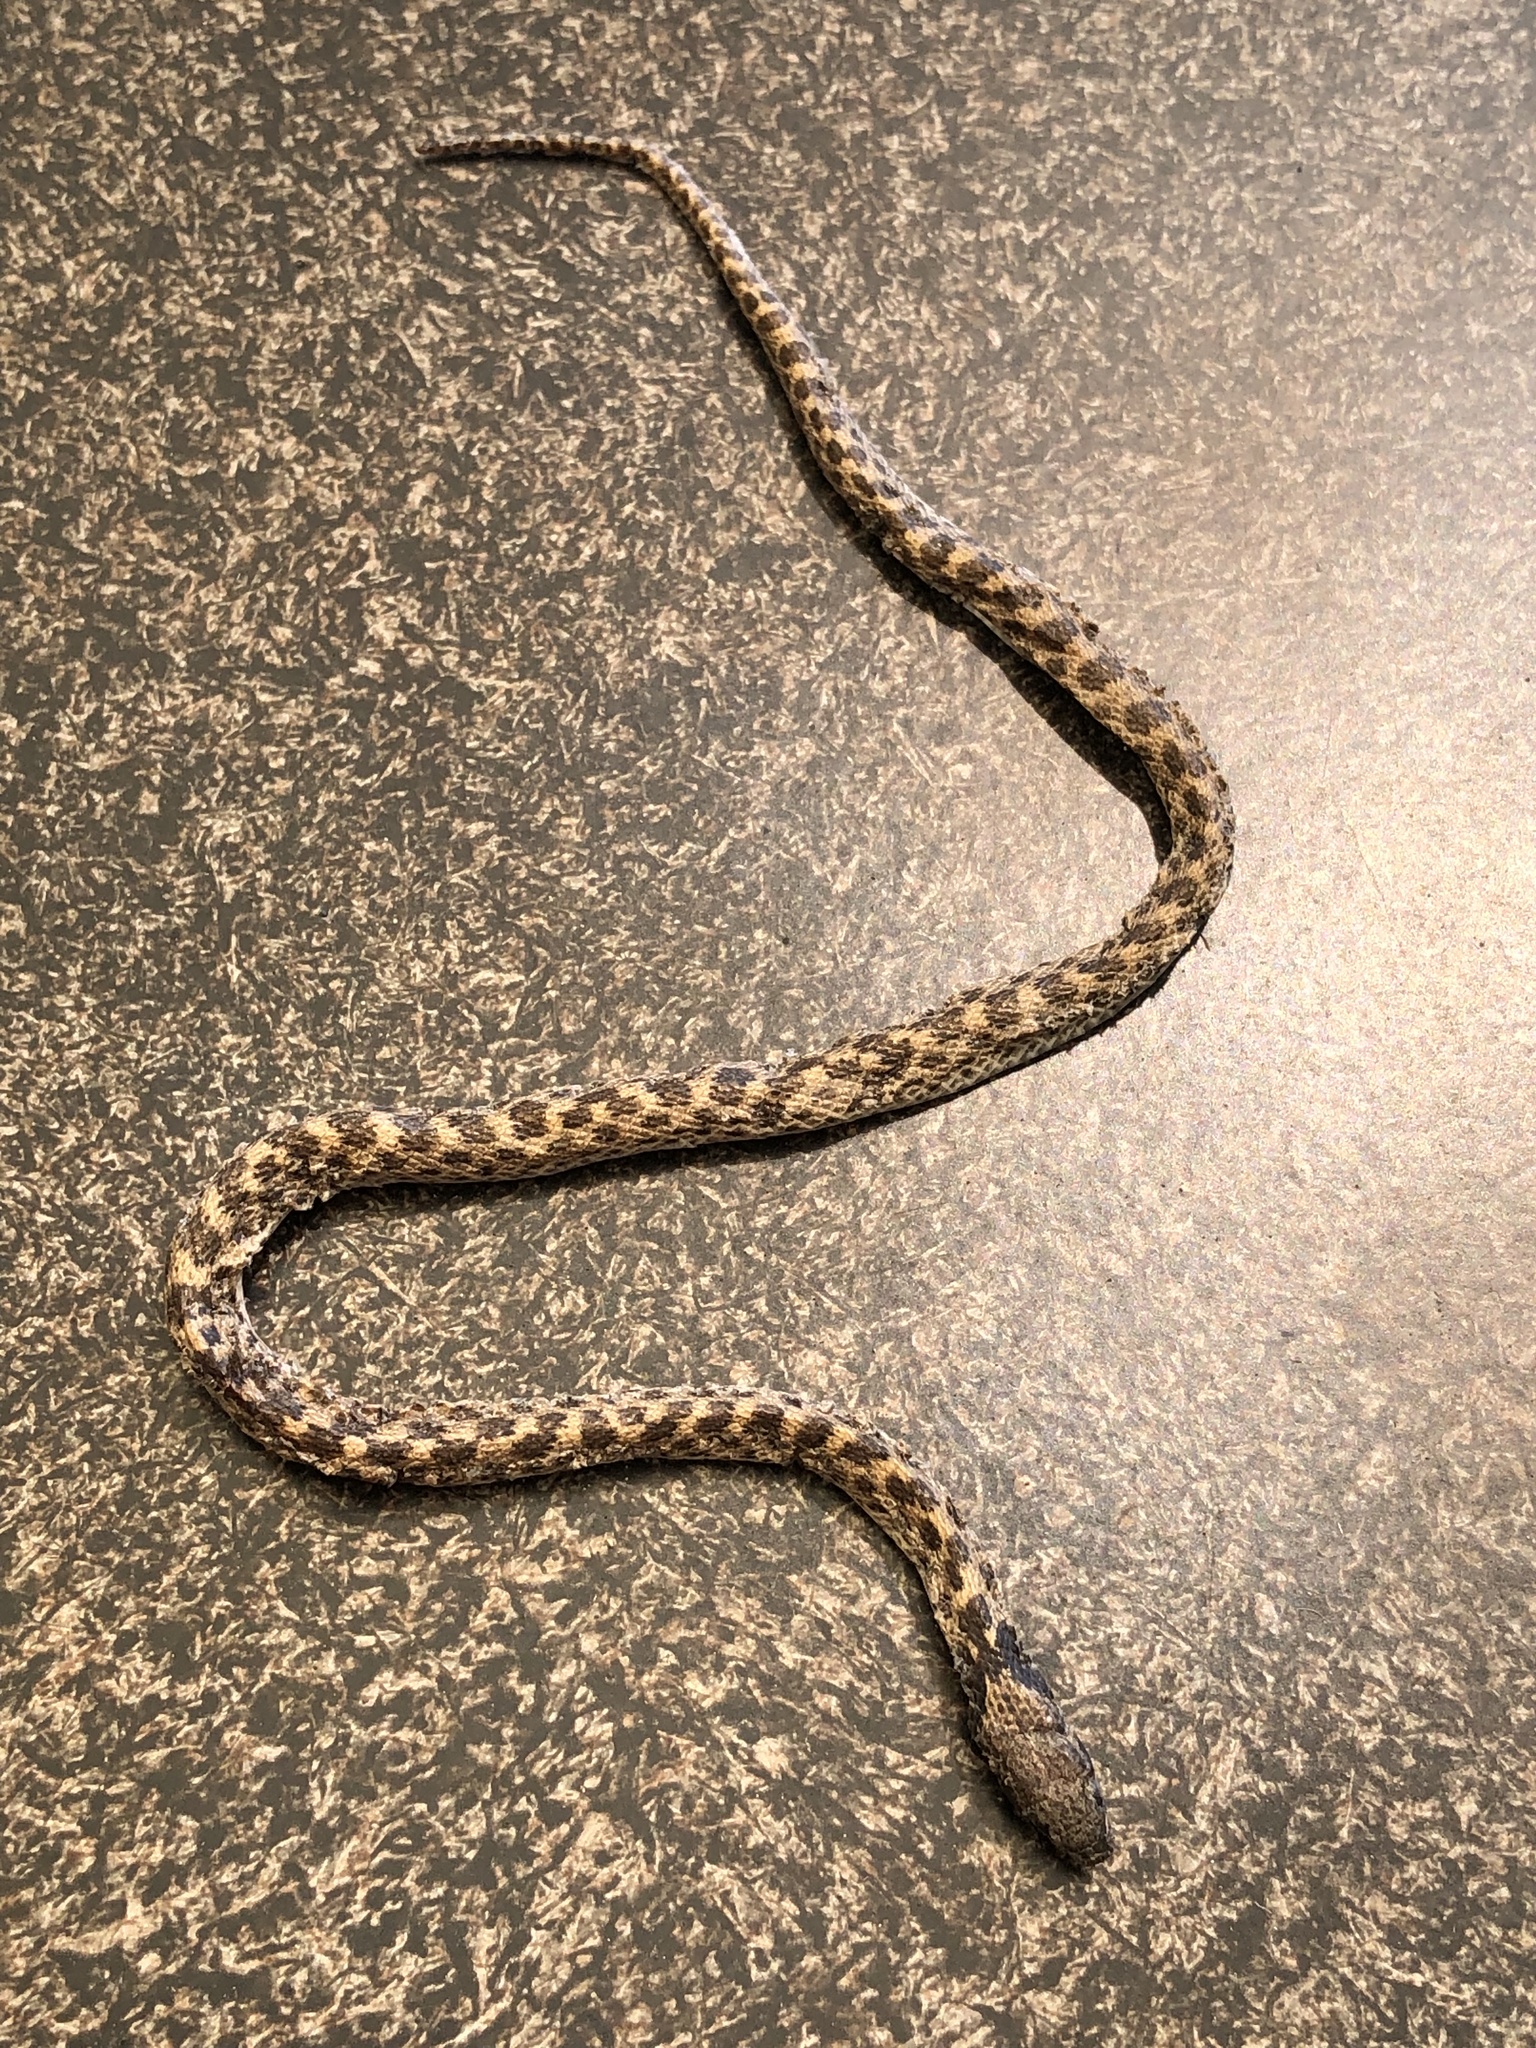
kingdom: Animalia
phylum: Chordata
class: Squamata
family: Colubridae
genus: Hypsiglena
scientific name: Hypsiglena ochrorhynchus
